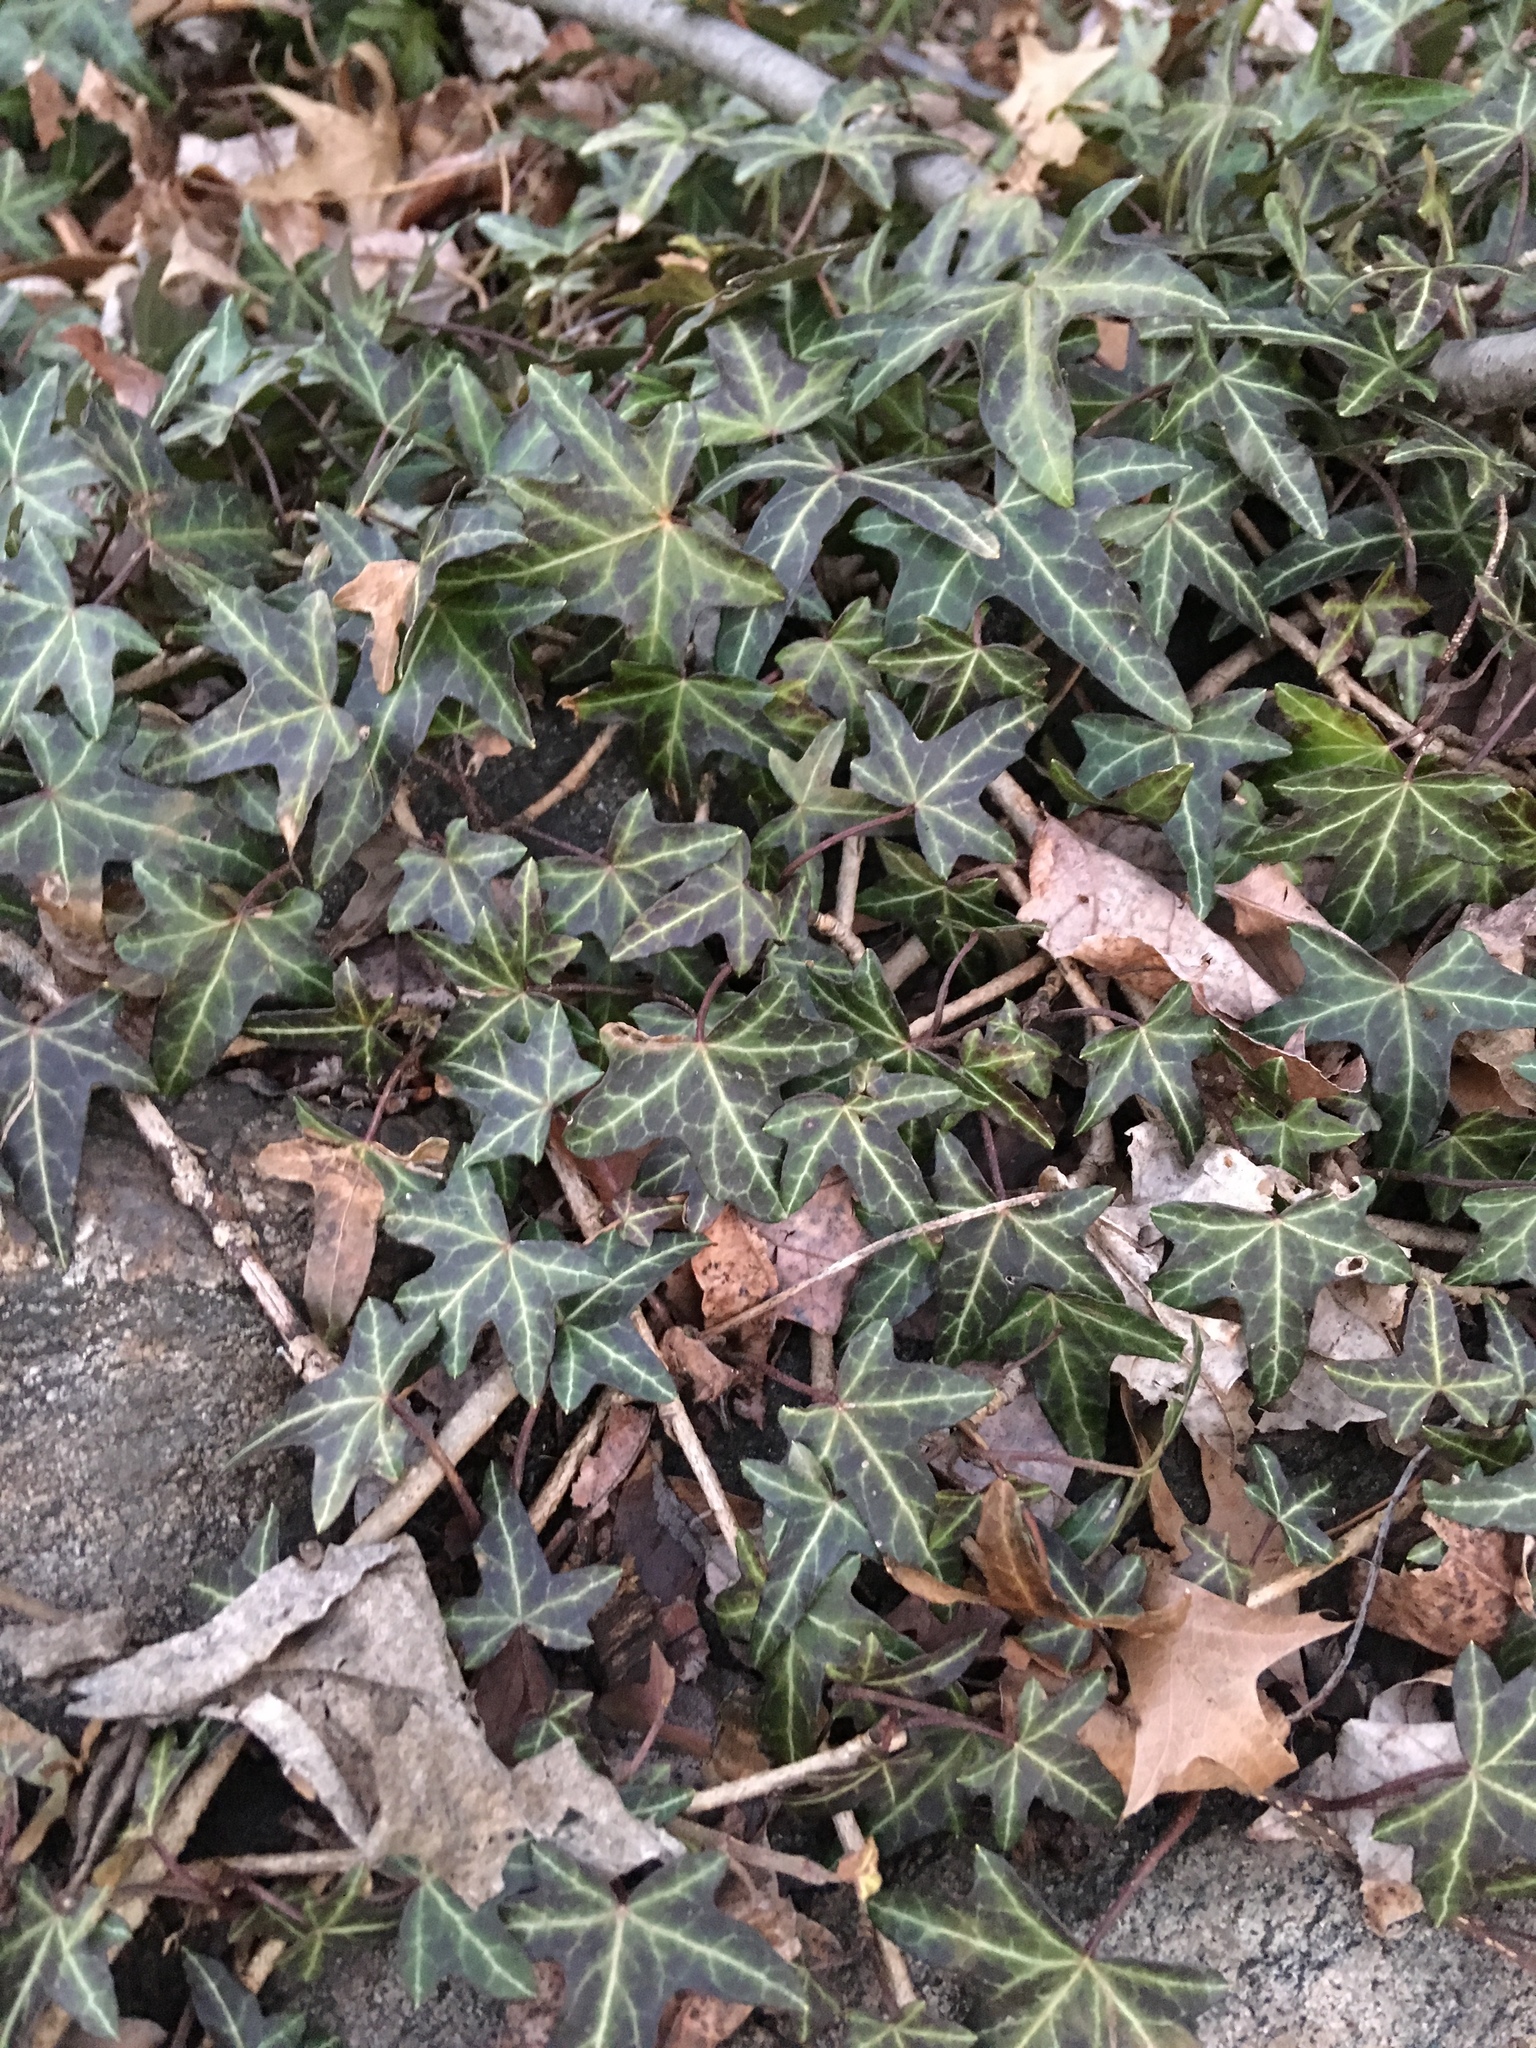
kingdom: Plantae
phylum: Tracheophyta
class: Magnoliopsida
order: Apiales
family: Araliaceae
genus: Hedera
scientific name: Hedera helix
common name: Ivy
